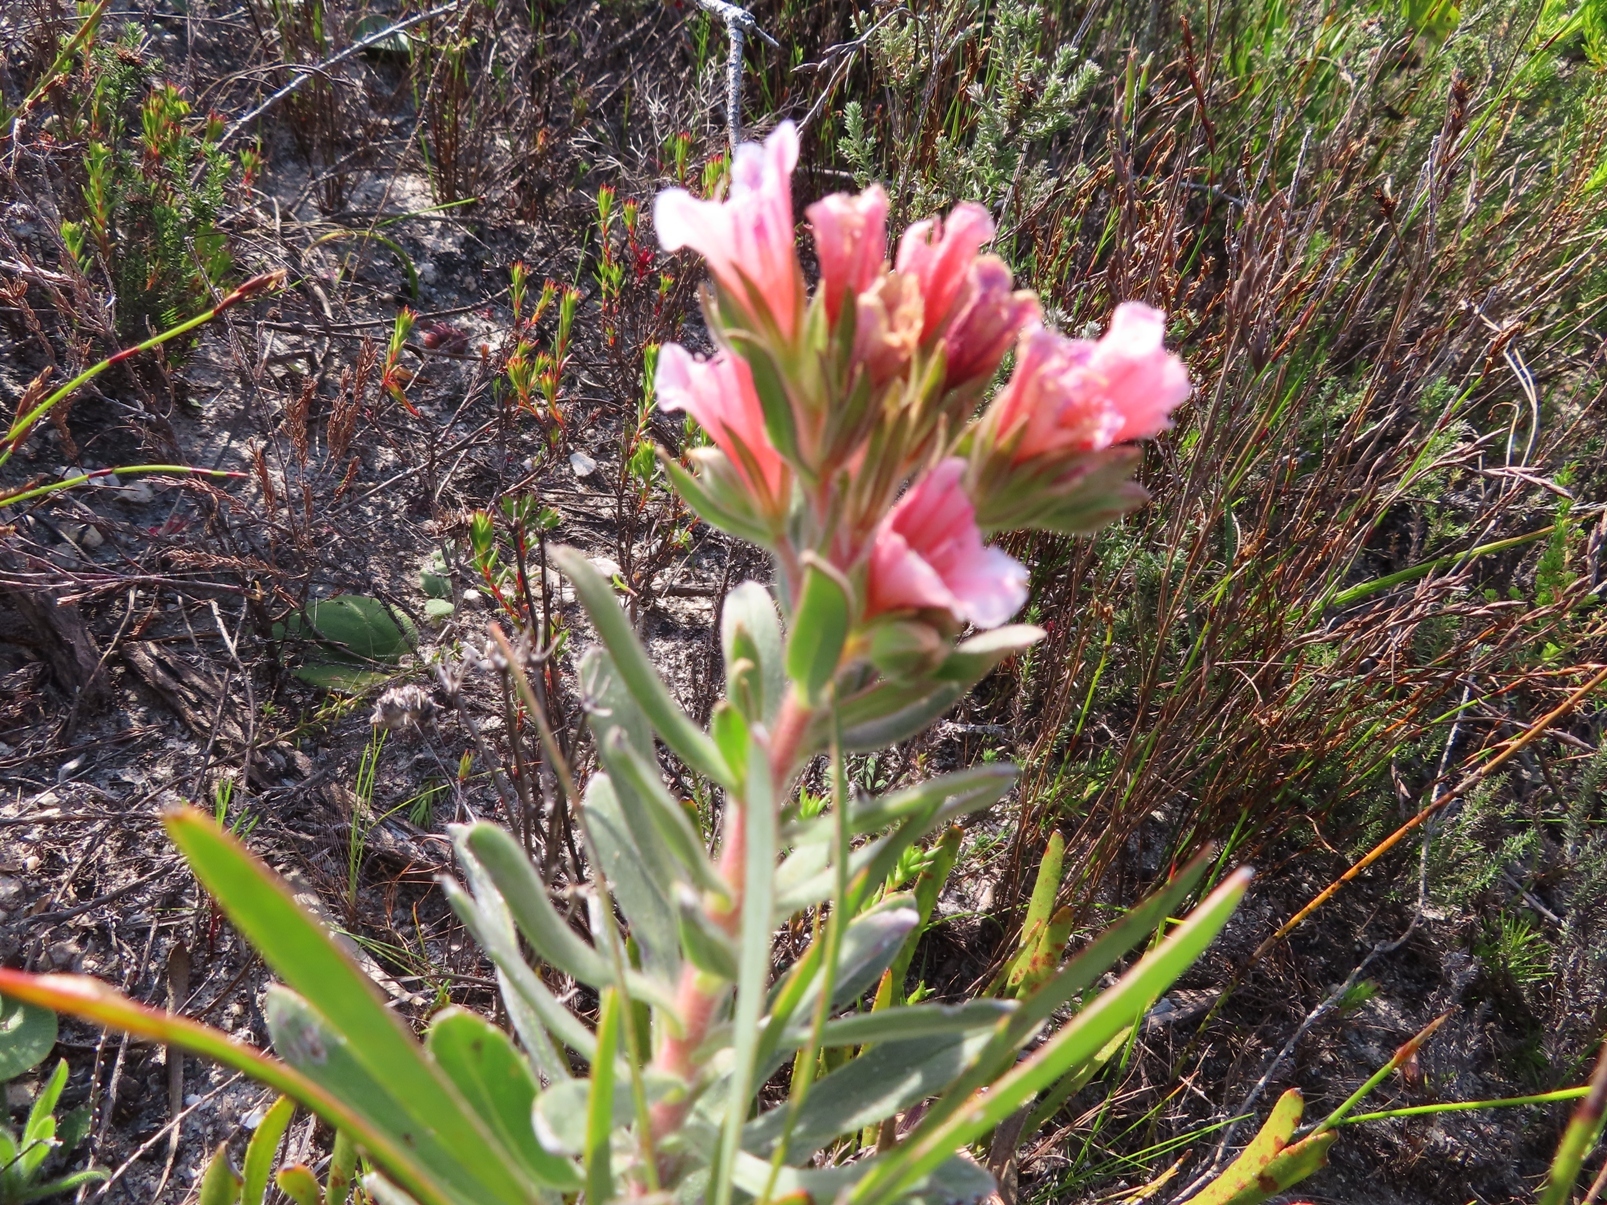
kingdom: Plantae
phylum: Tracheophyta
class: Magnoliopsida
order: Boraginales
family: Boraginaceae
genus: Lobostemon
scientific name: Lobostemon lucidus
